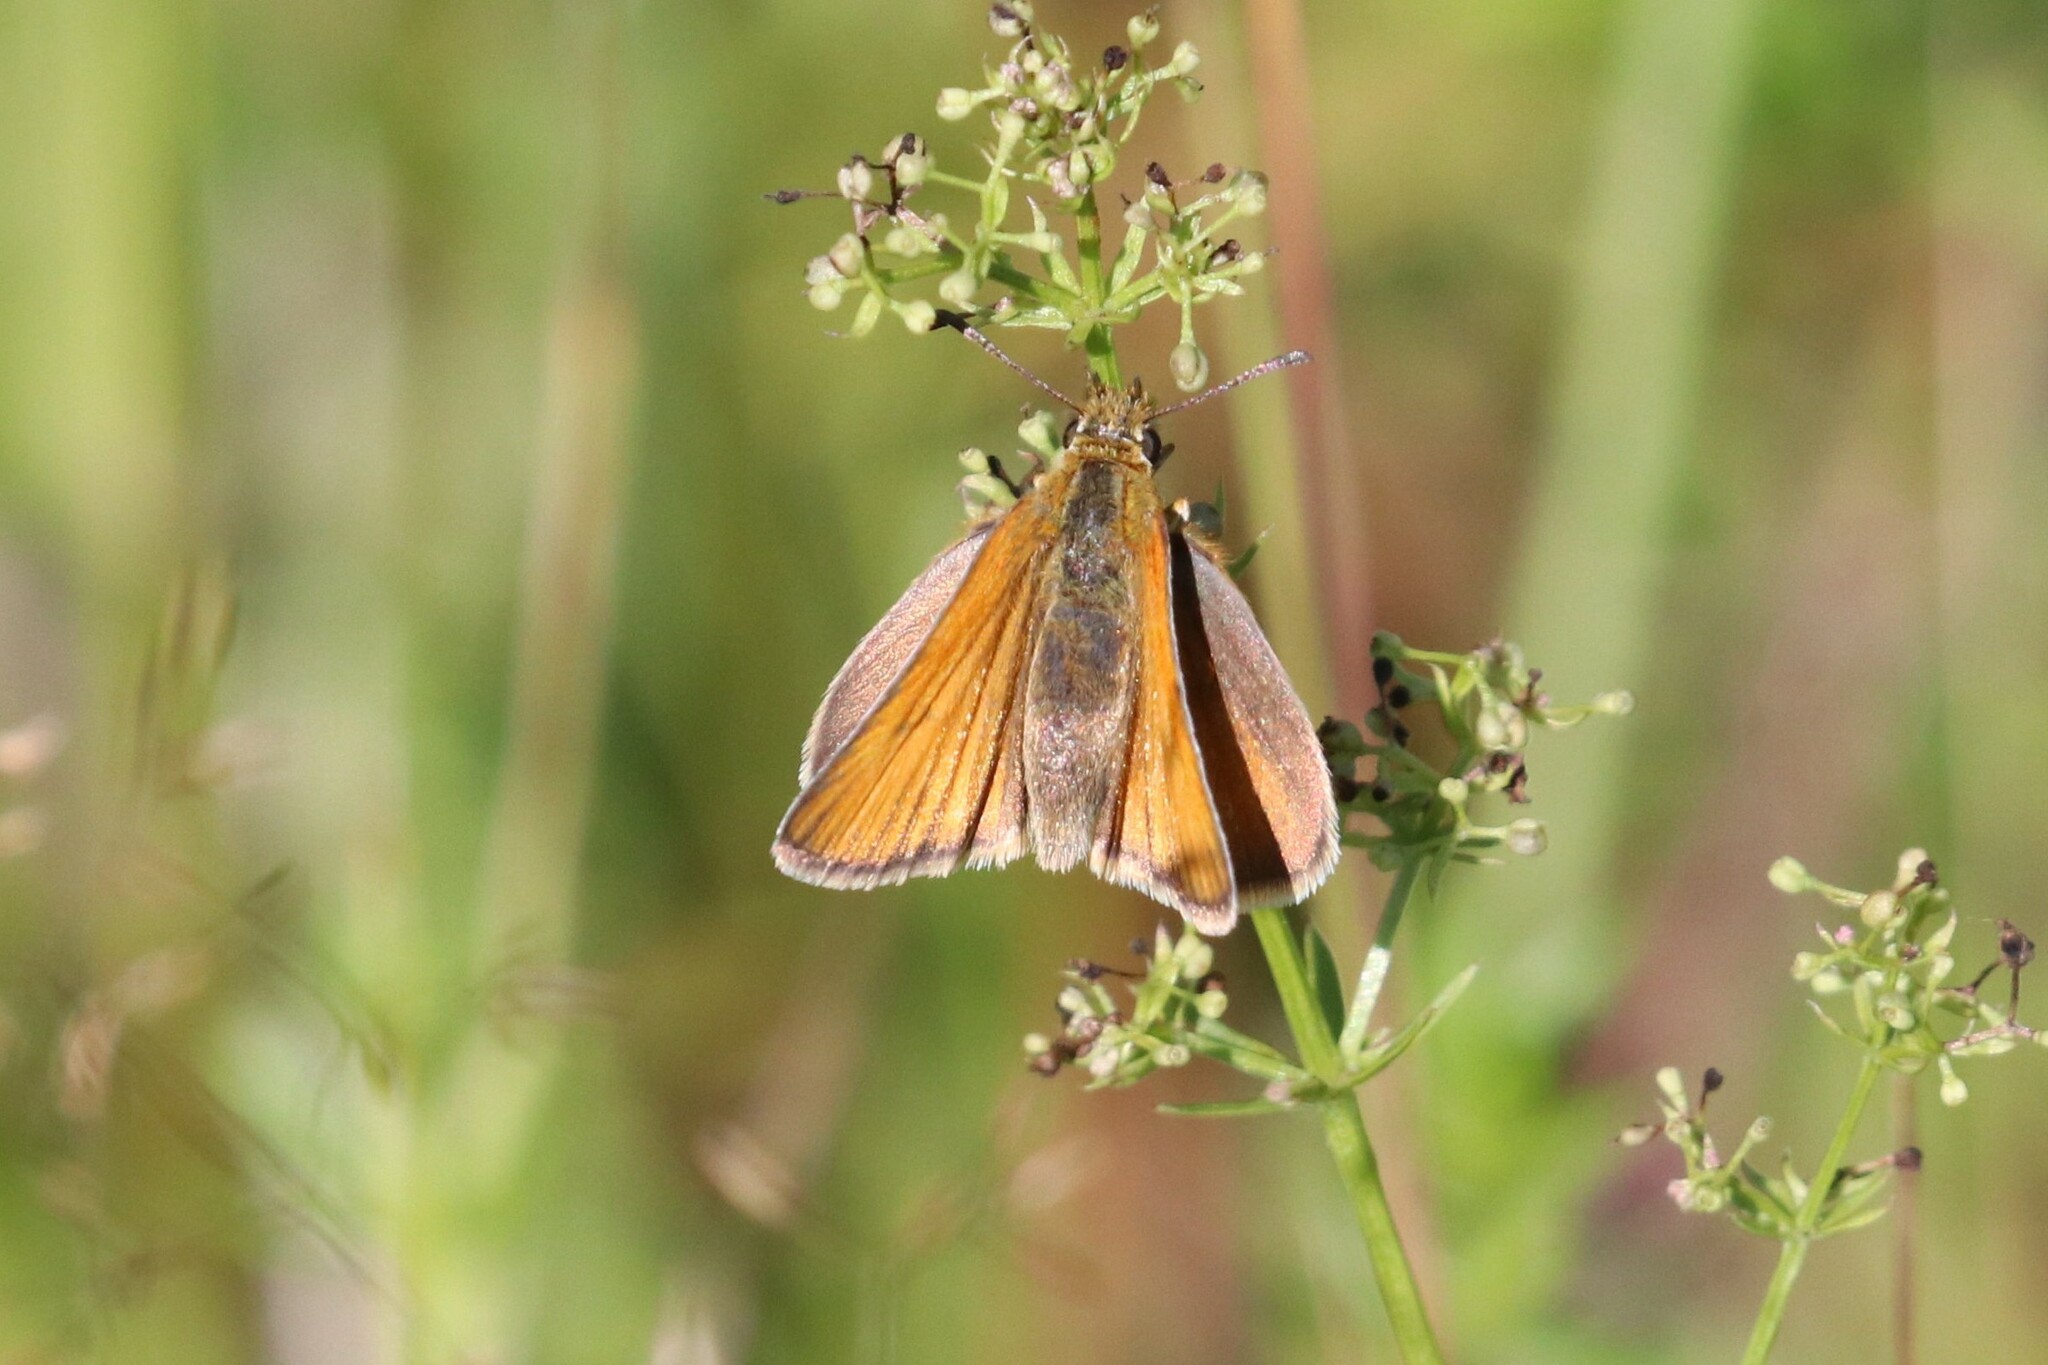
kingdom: Animalia
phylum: Arthropoda
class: Insecta
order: Lepidoptera
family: Hesperiidae
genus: Thymelicus
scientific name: Thymelicus lineola
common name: Essex skipper
